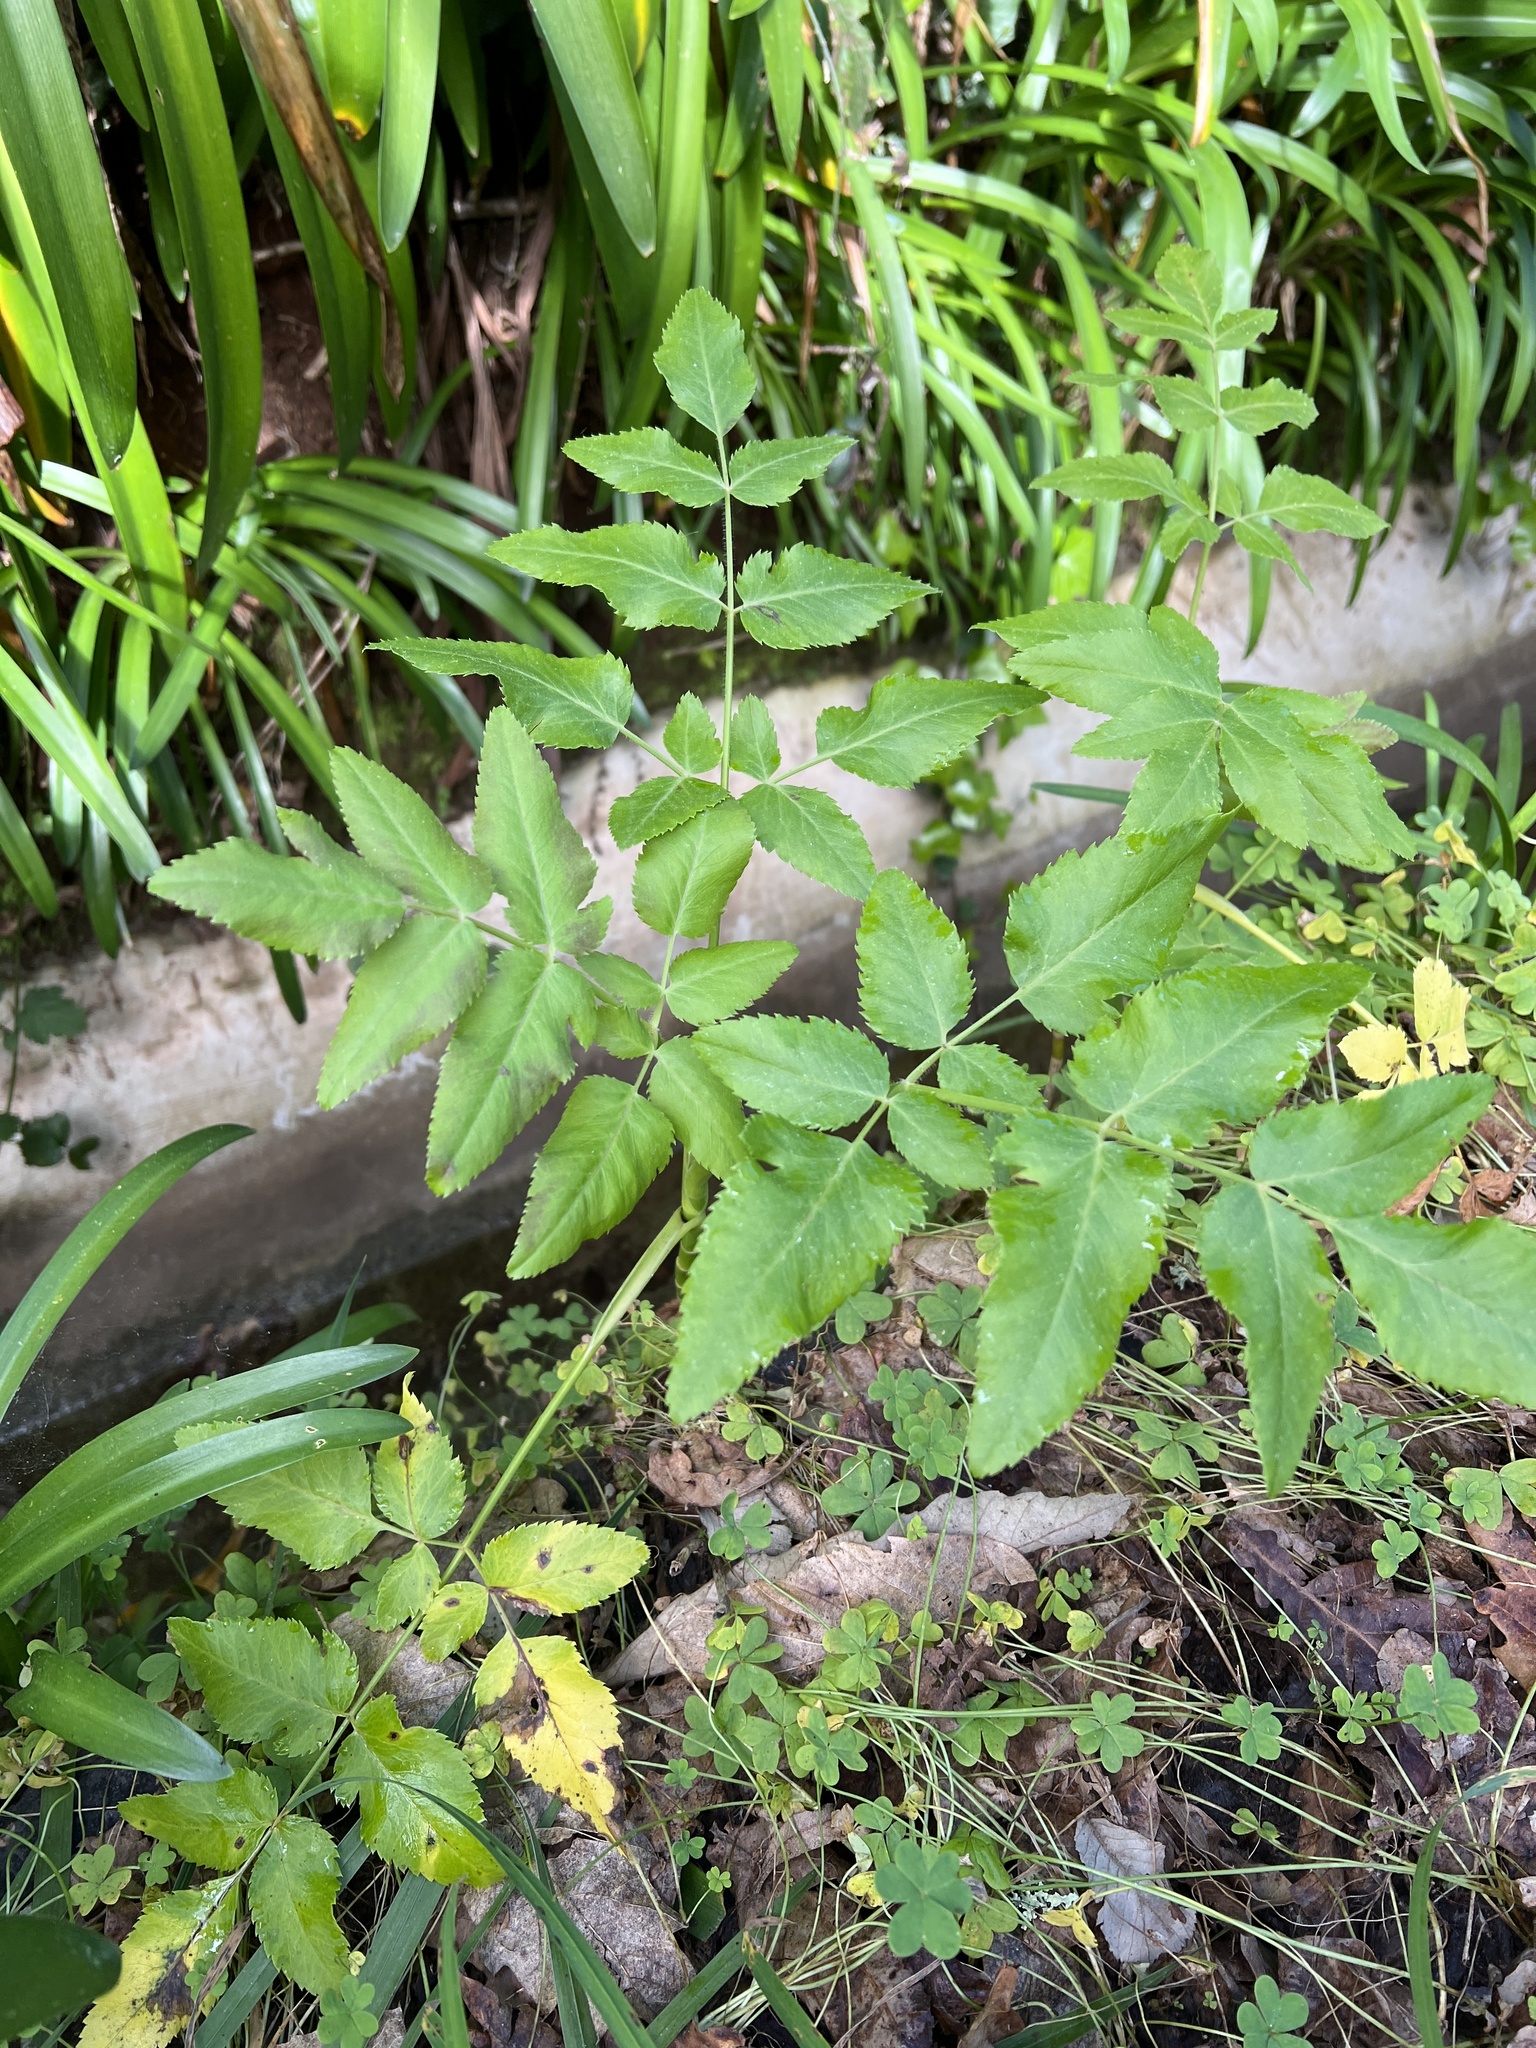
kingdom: Plantae
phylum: Tracheophyta
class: Magnoliopsida
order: Apiales
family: Apiaceae
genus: Daucus
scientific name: Daucus decipiens
